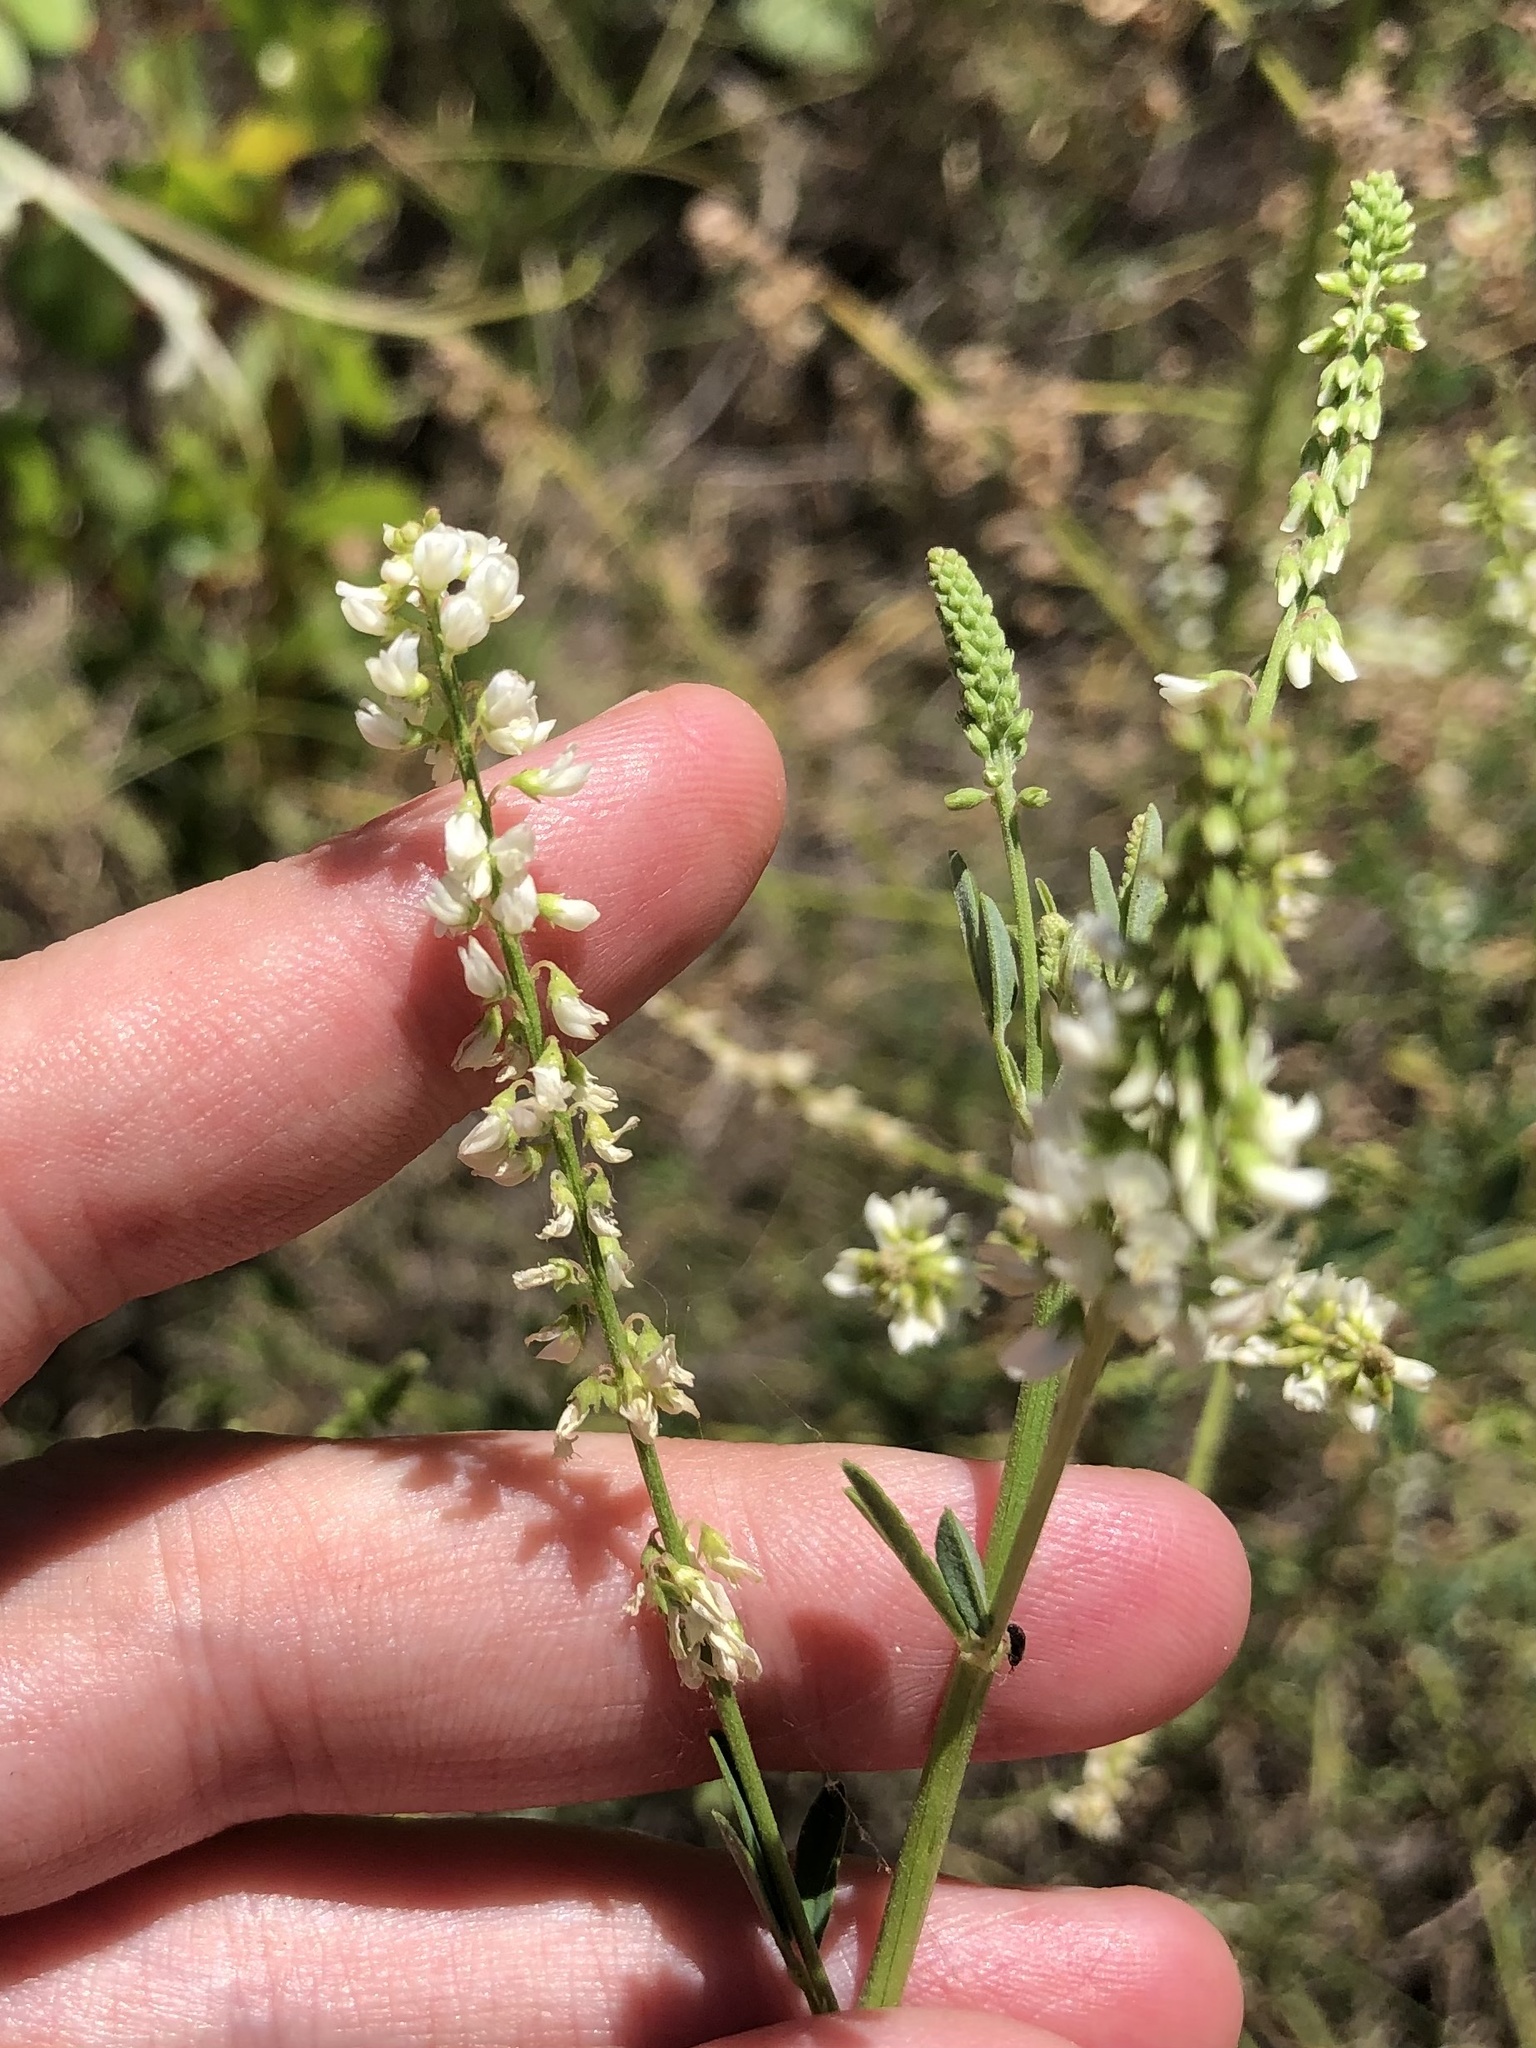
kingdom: Plantae
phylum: Tracheophyta
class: Magnoliopsida
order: Fabales
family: Fabaceae
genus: Melilotus
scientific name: Melilotus albus
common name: White melilot
